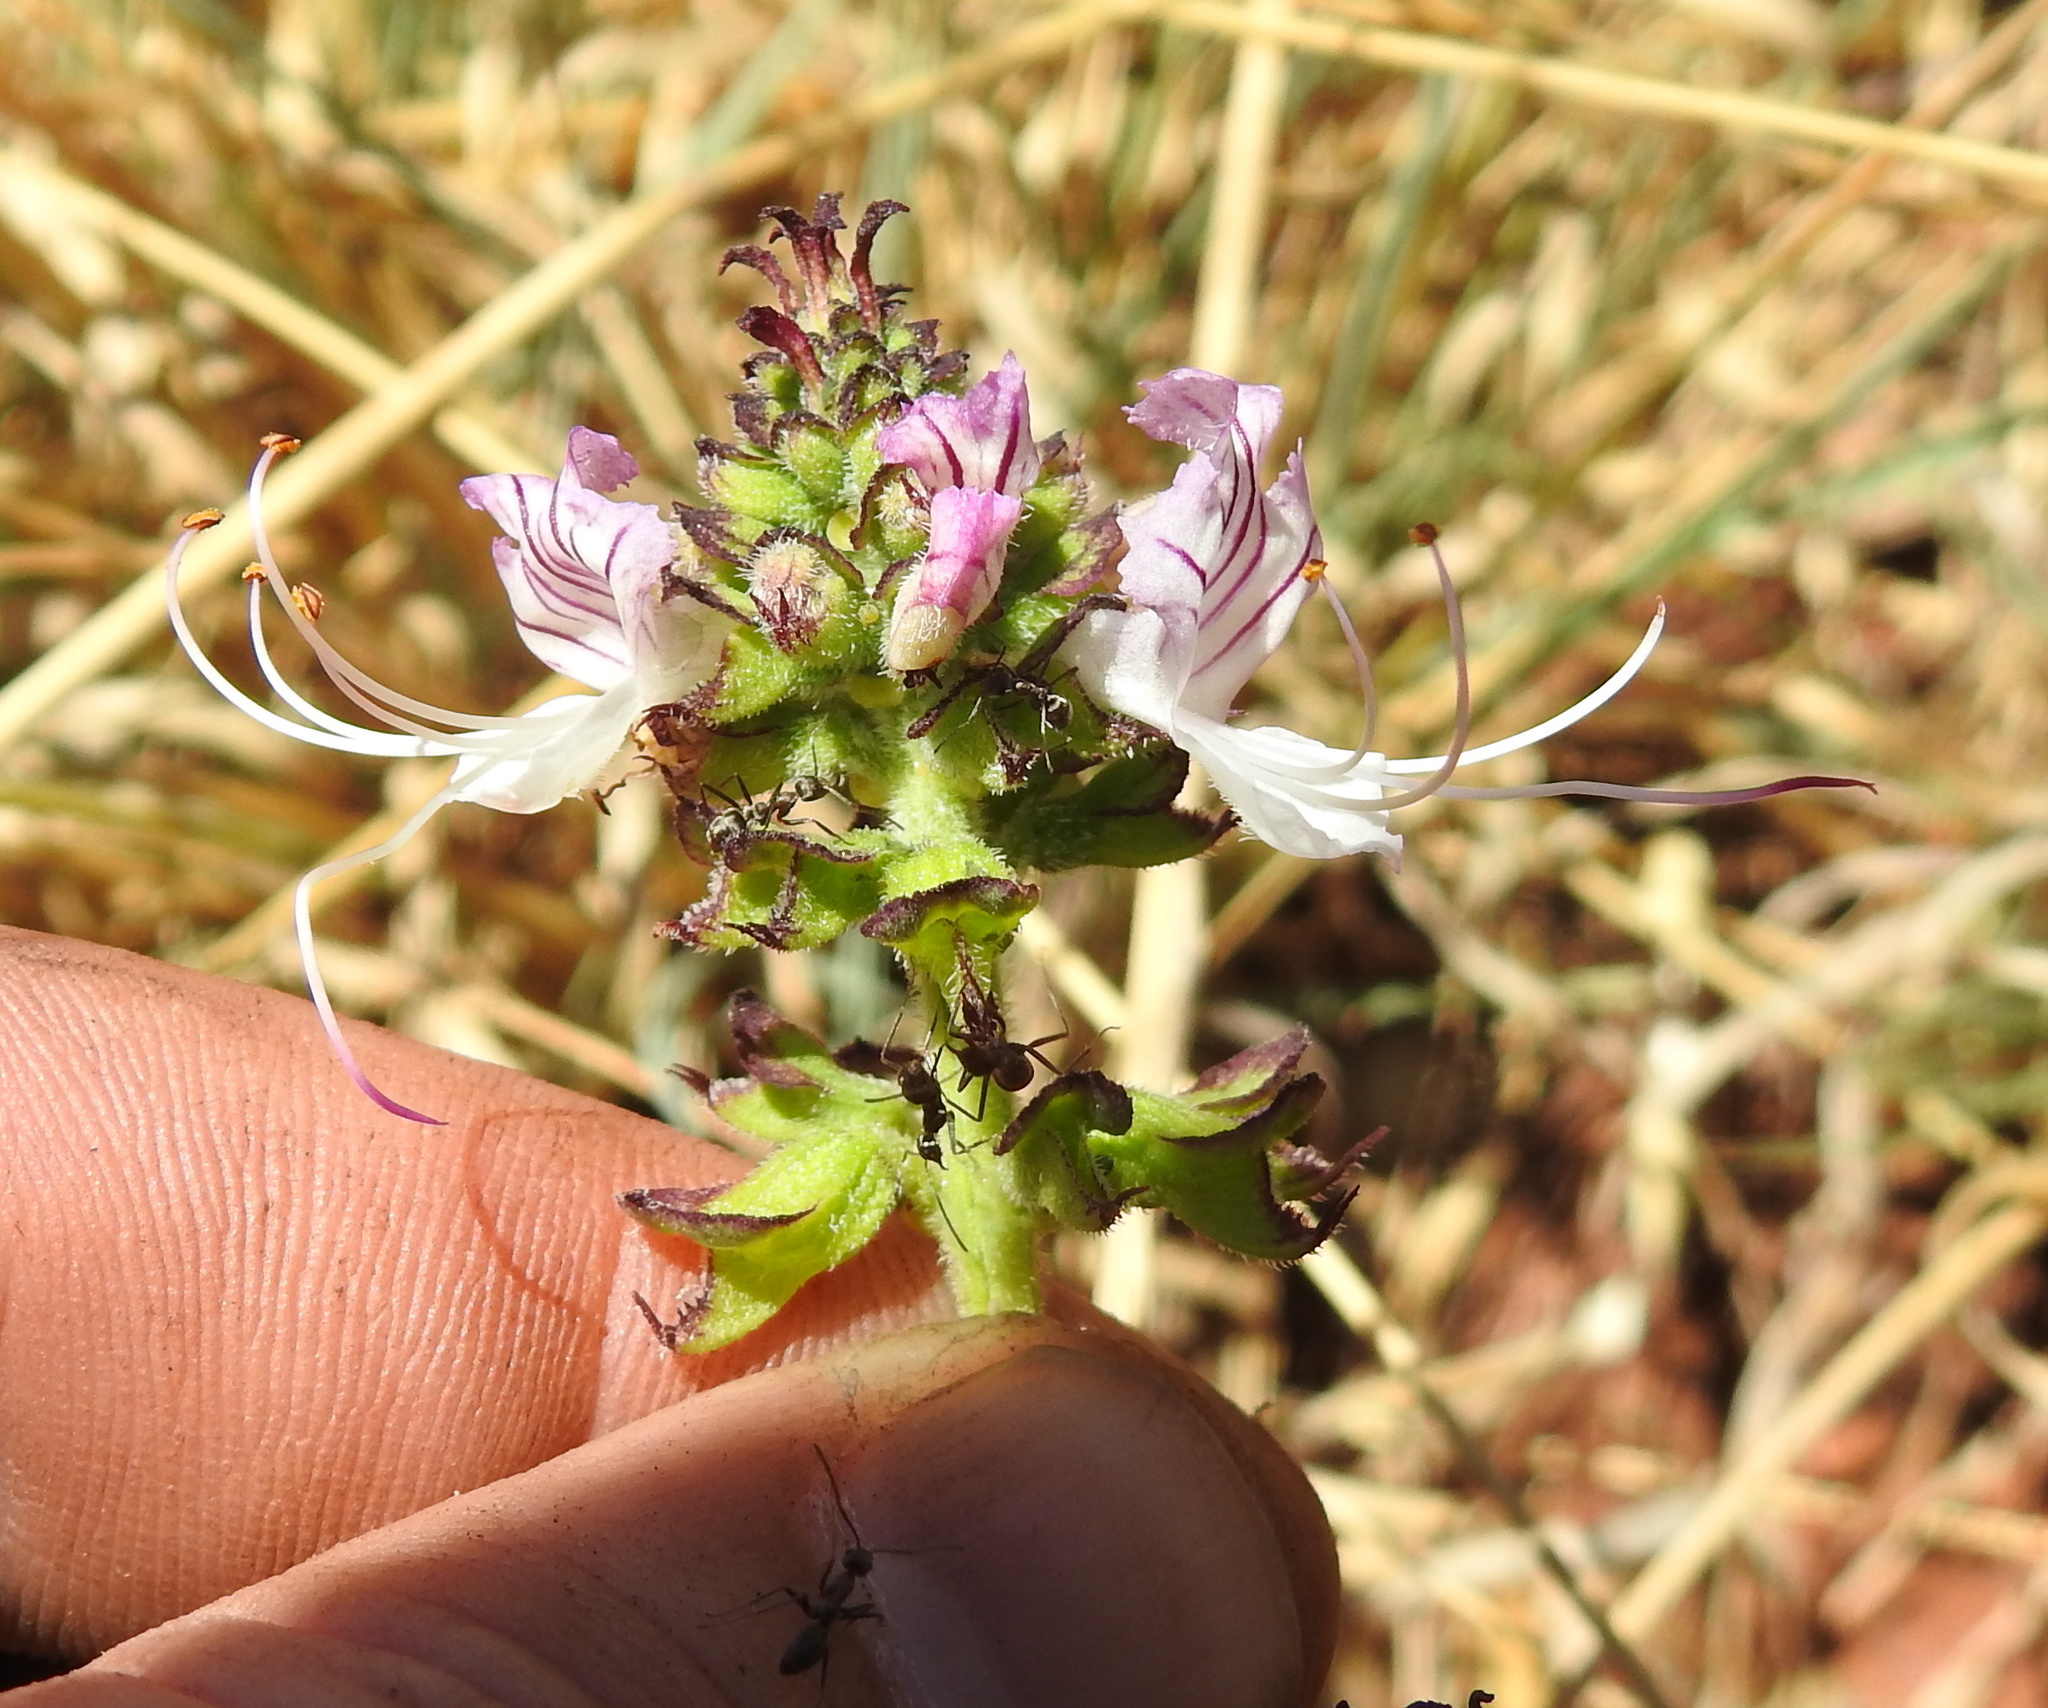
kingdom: Plantae
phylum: Tracheophyta
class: Magnoliopsida
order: Lamiales
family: Lamiaceae
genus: Ocimum
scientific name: Ocimum obovatum
